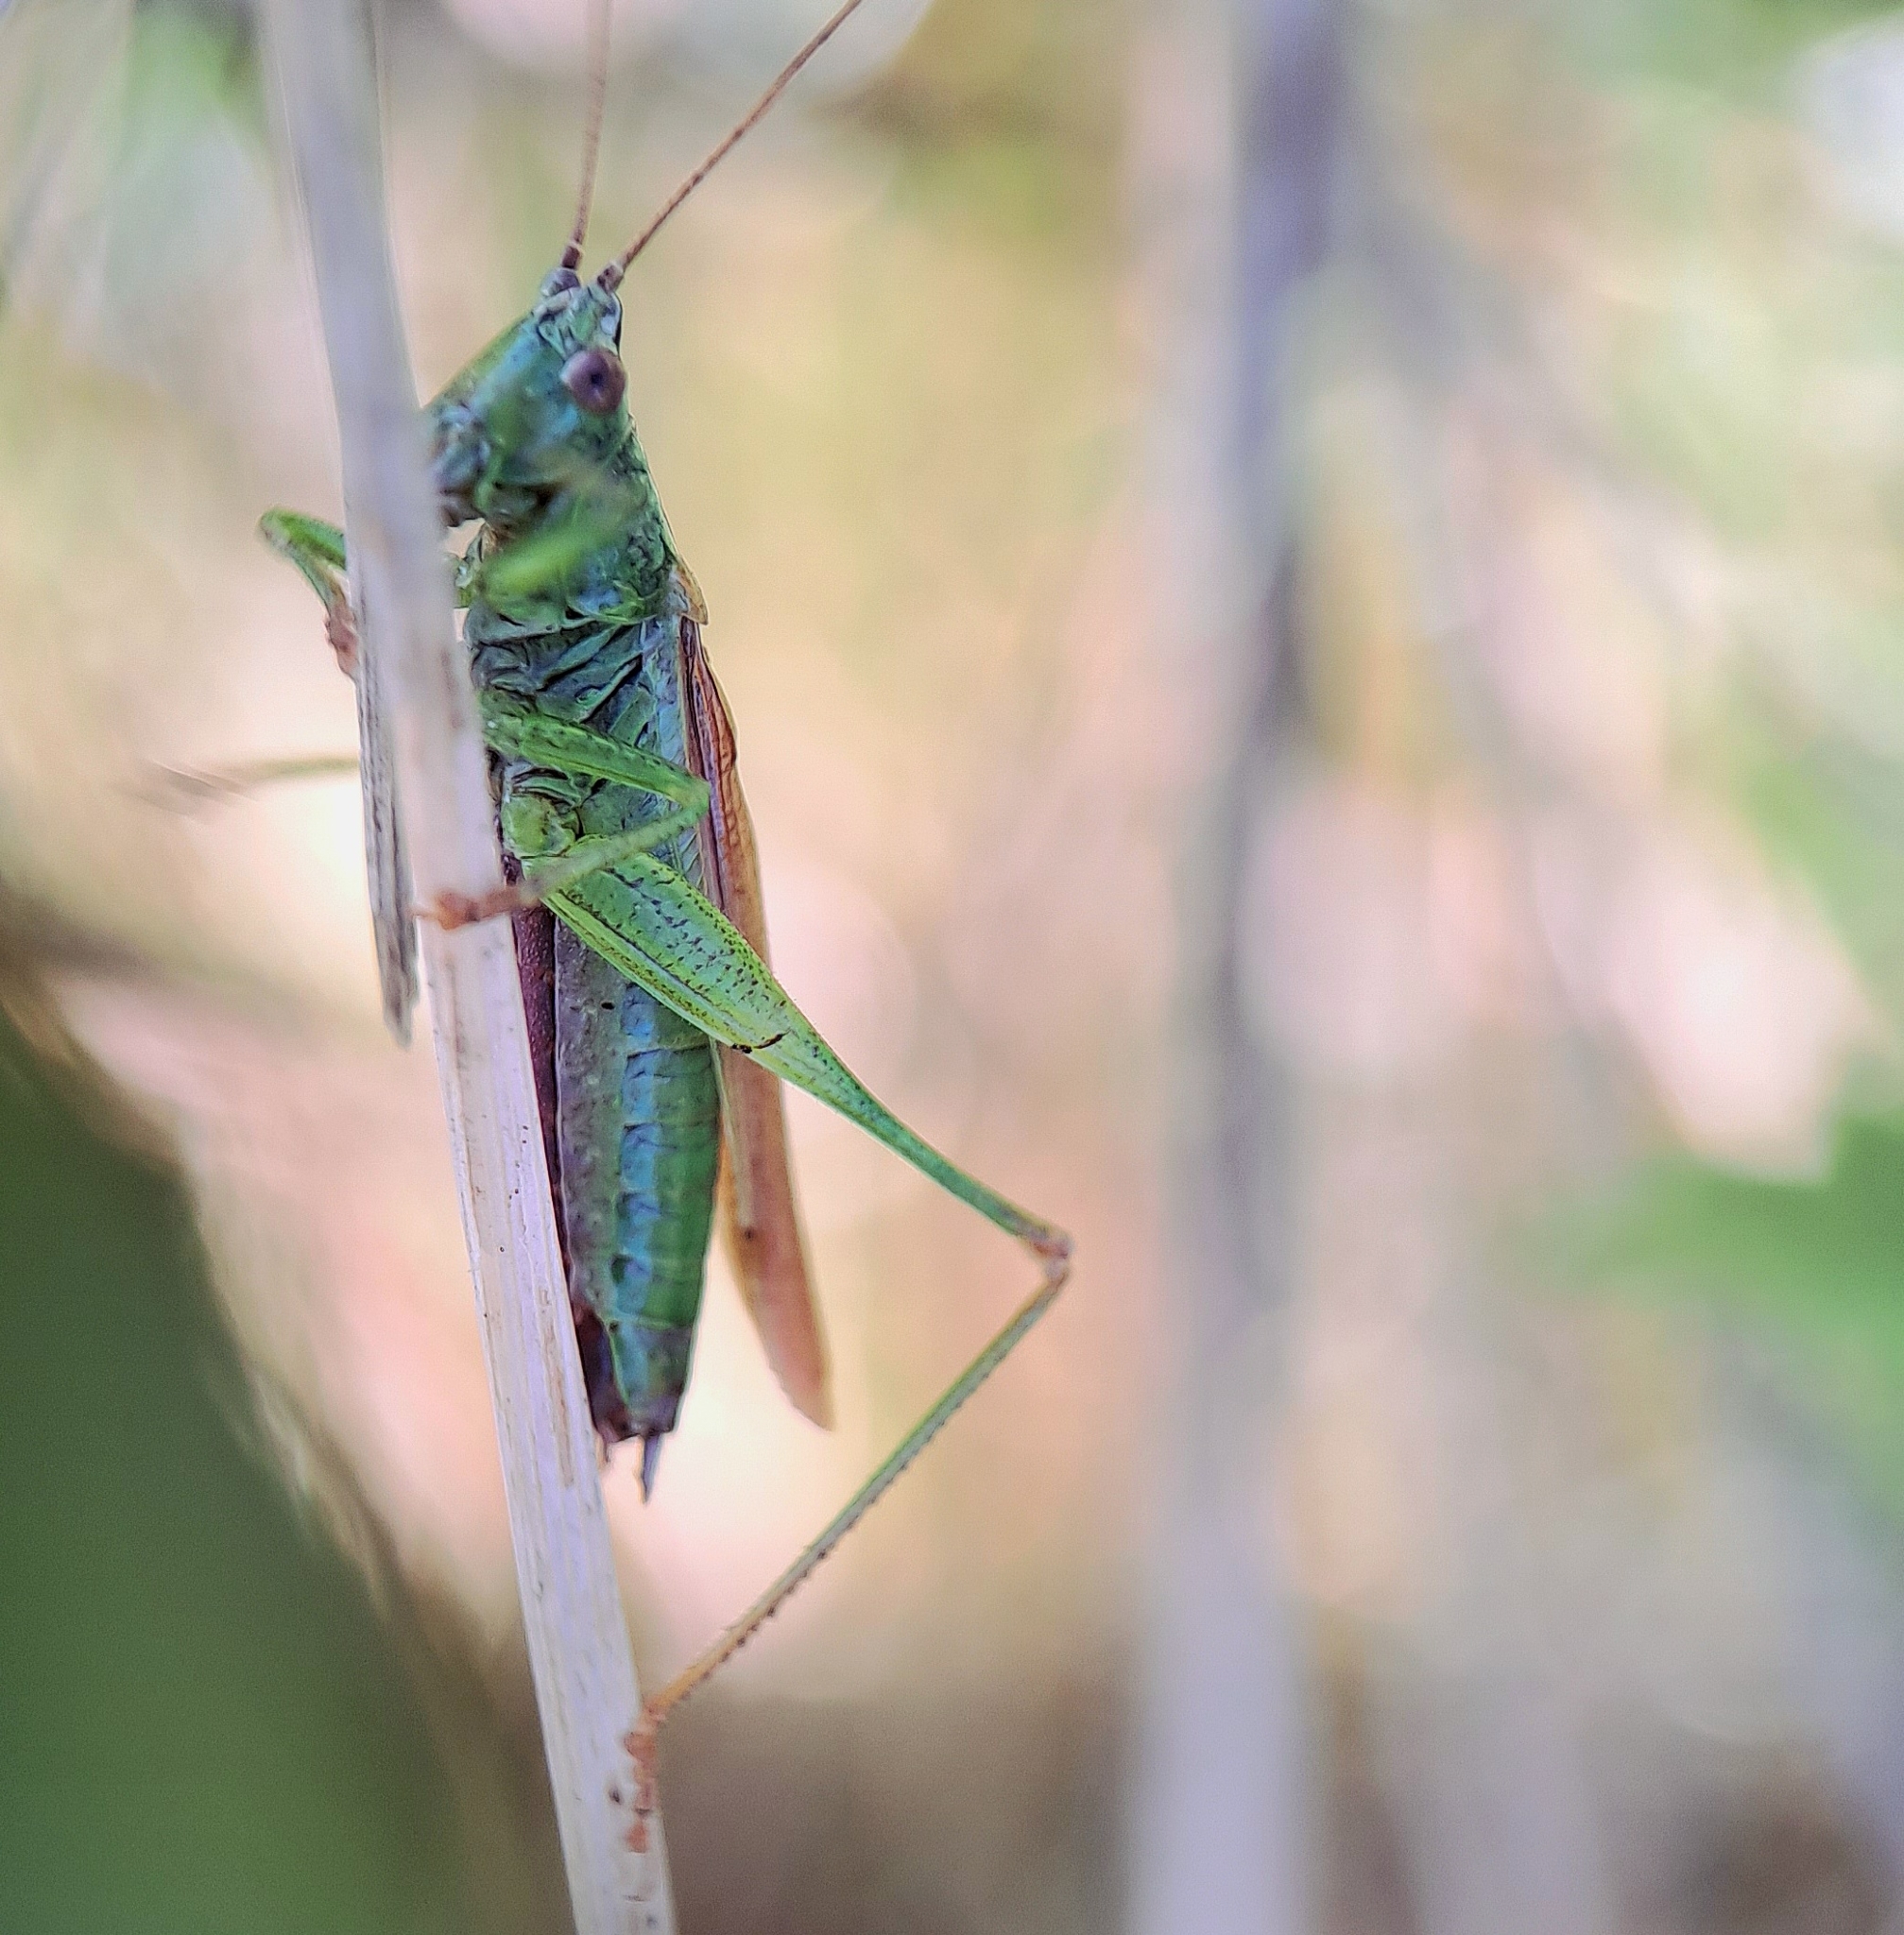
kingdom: Animalia
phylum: Arthropoda
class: Insecta
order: Orthoptera
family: Tettigoniidae
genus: Conocephalus
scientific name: Conocephalus fuscus
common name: Long-winged conehead
